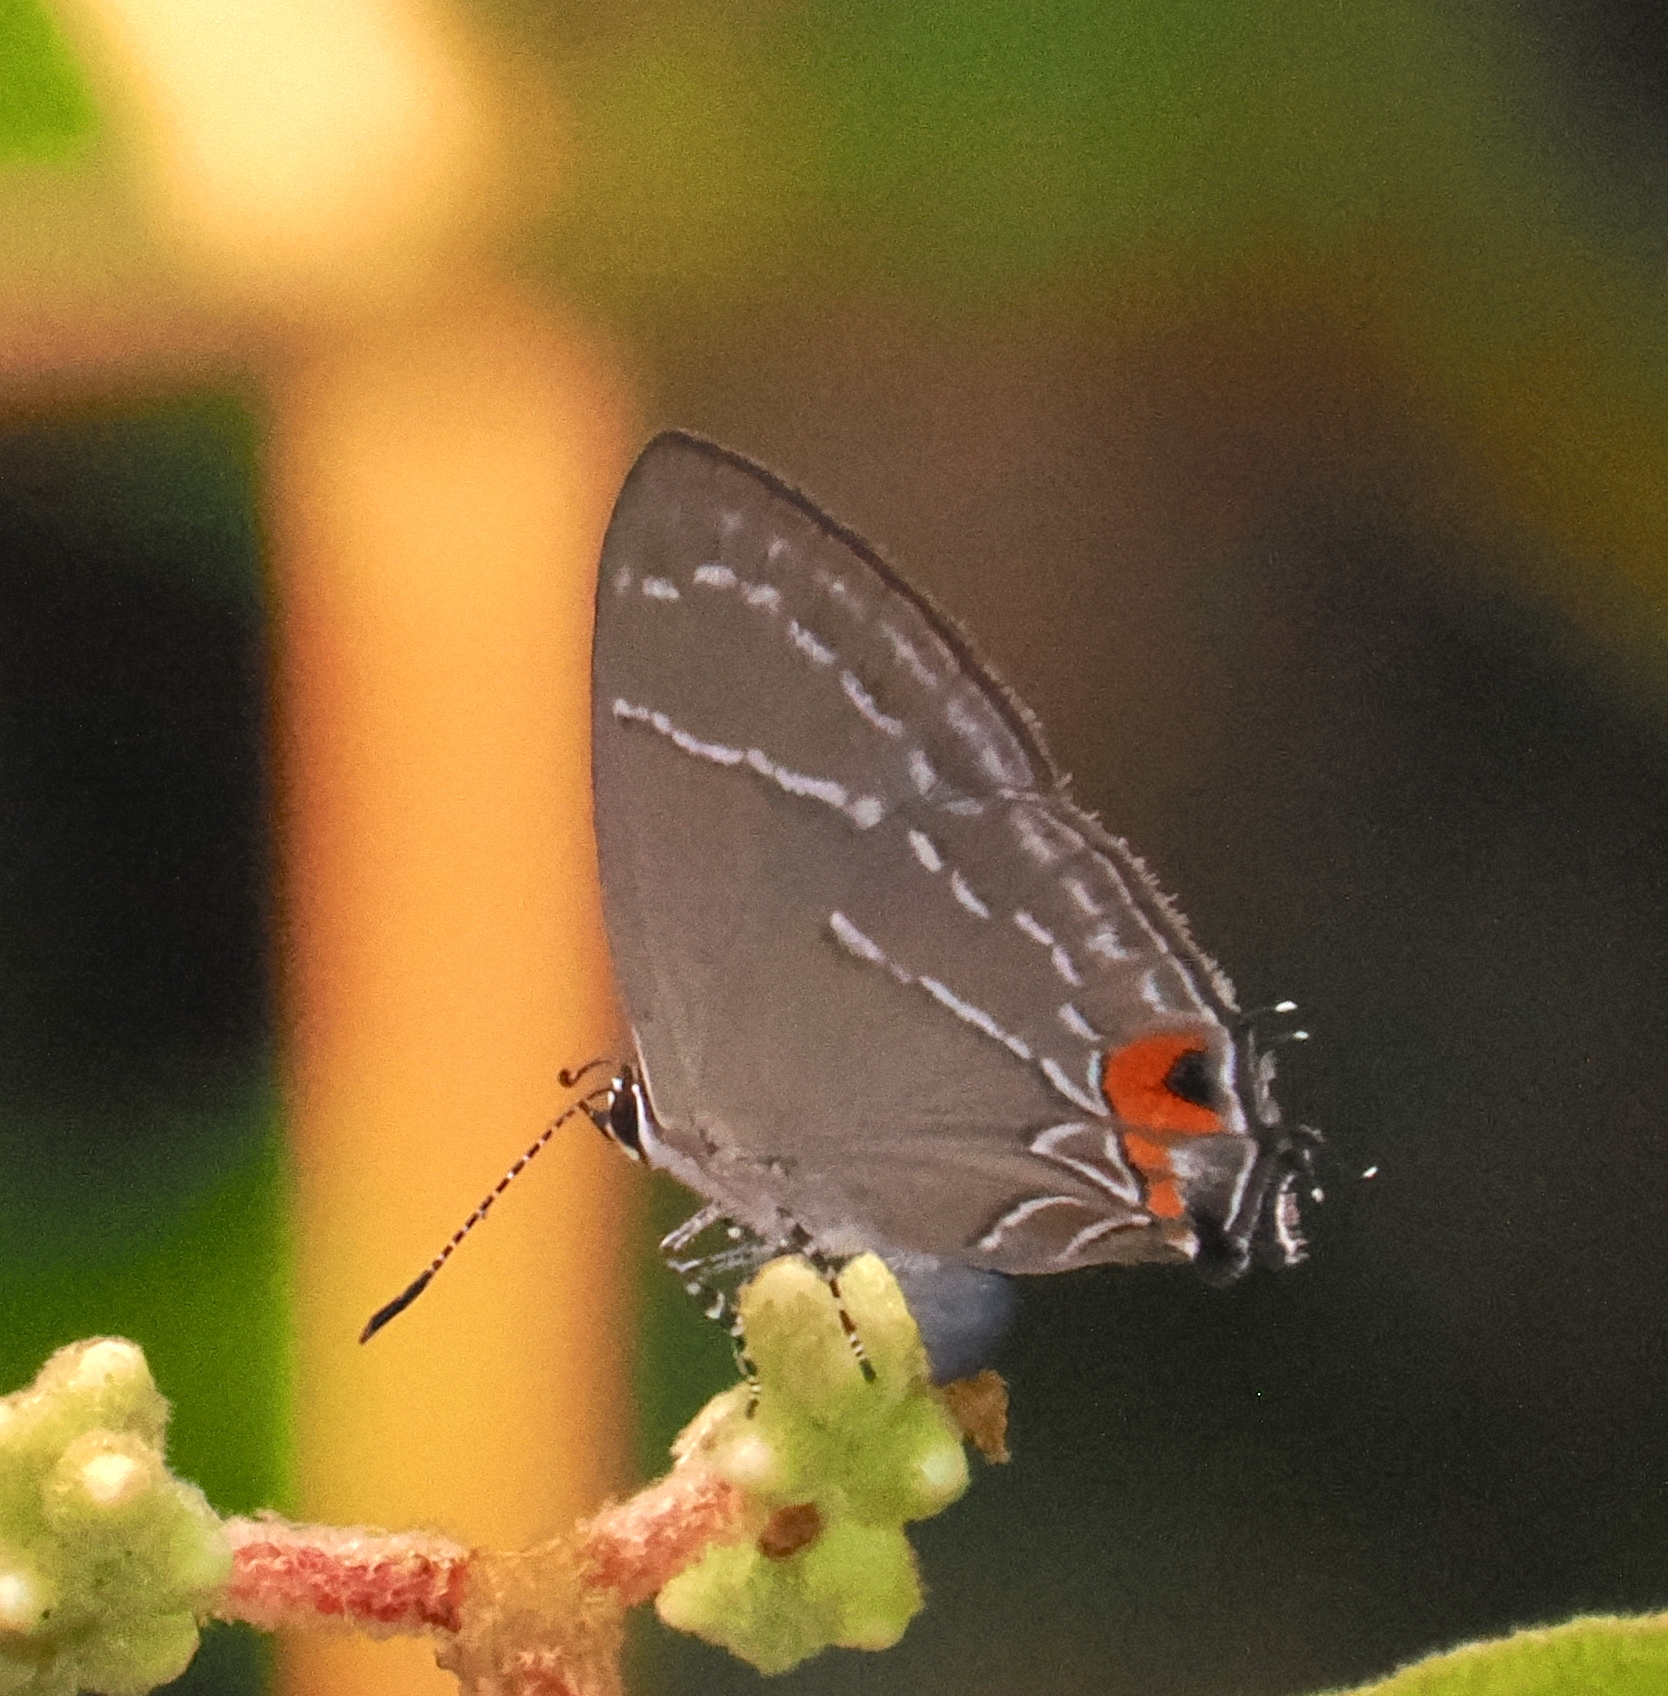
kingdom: Animalia
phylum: Arthropoda
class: Insecta
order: Lepidoptera
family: Lycaenidae
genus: Hypostrymon
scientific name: Hypostrymon
